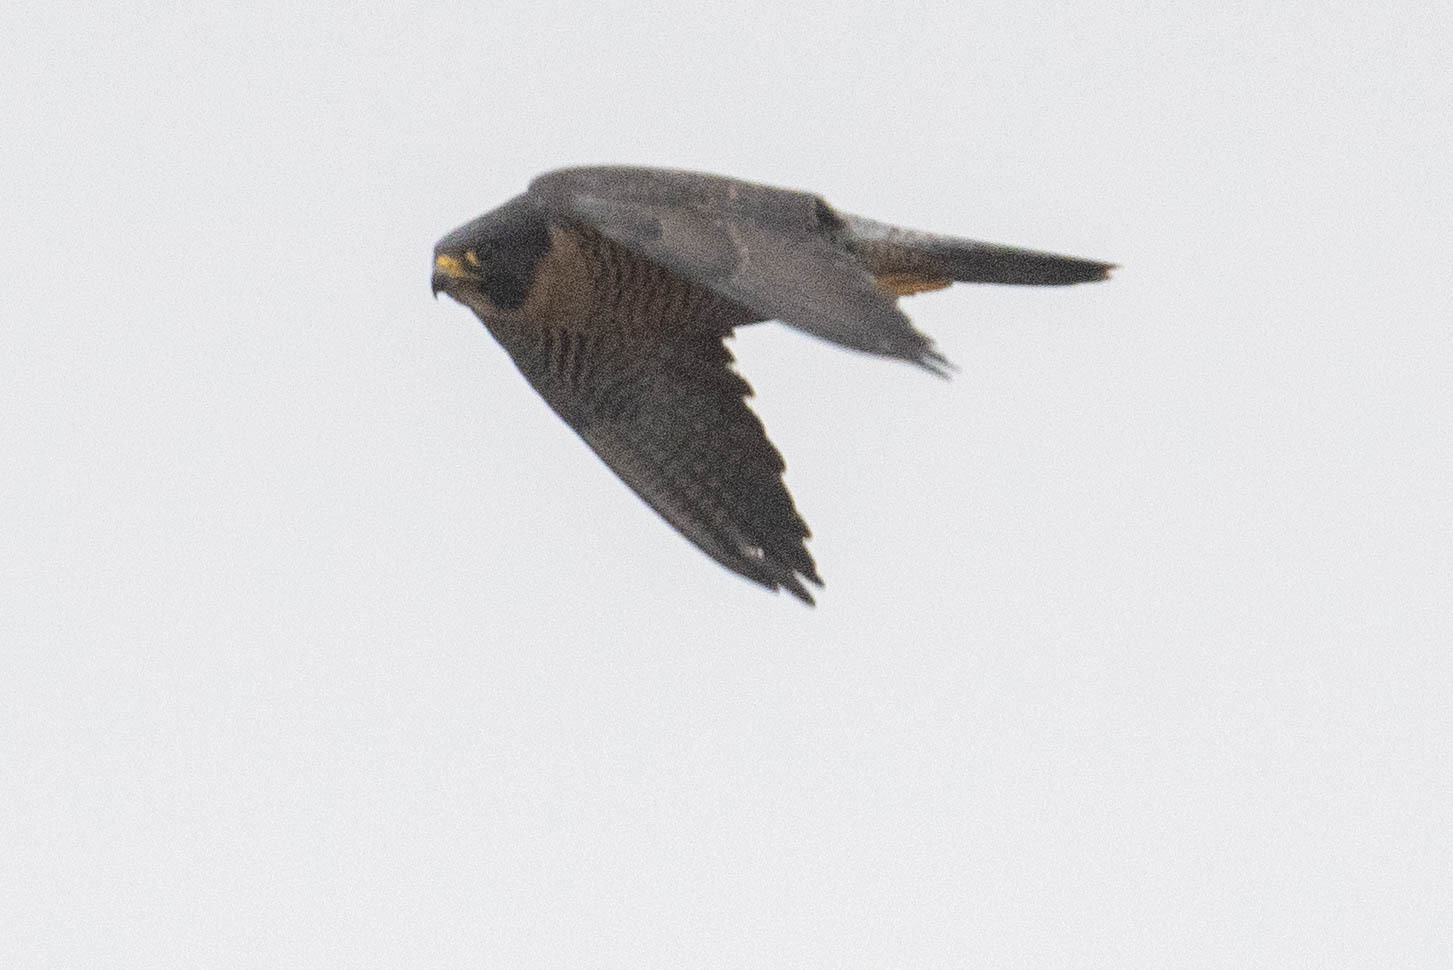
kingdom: Animalia
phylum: Chordata
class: Aves
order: Falconiformes
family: Falconidae
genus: Falco
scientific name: Falco peregrinus
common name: Peregrine falcon
